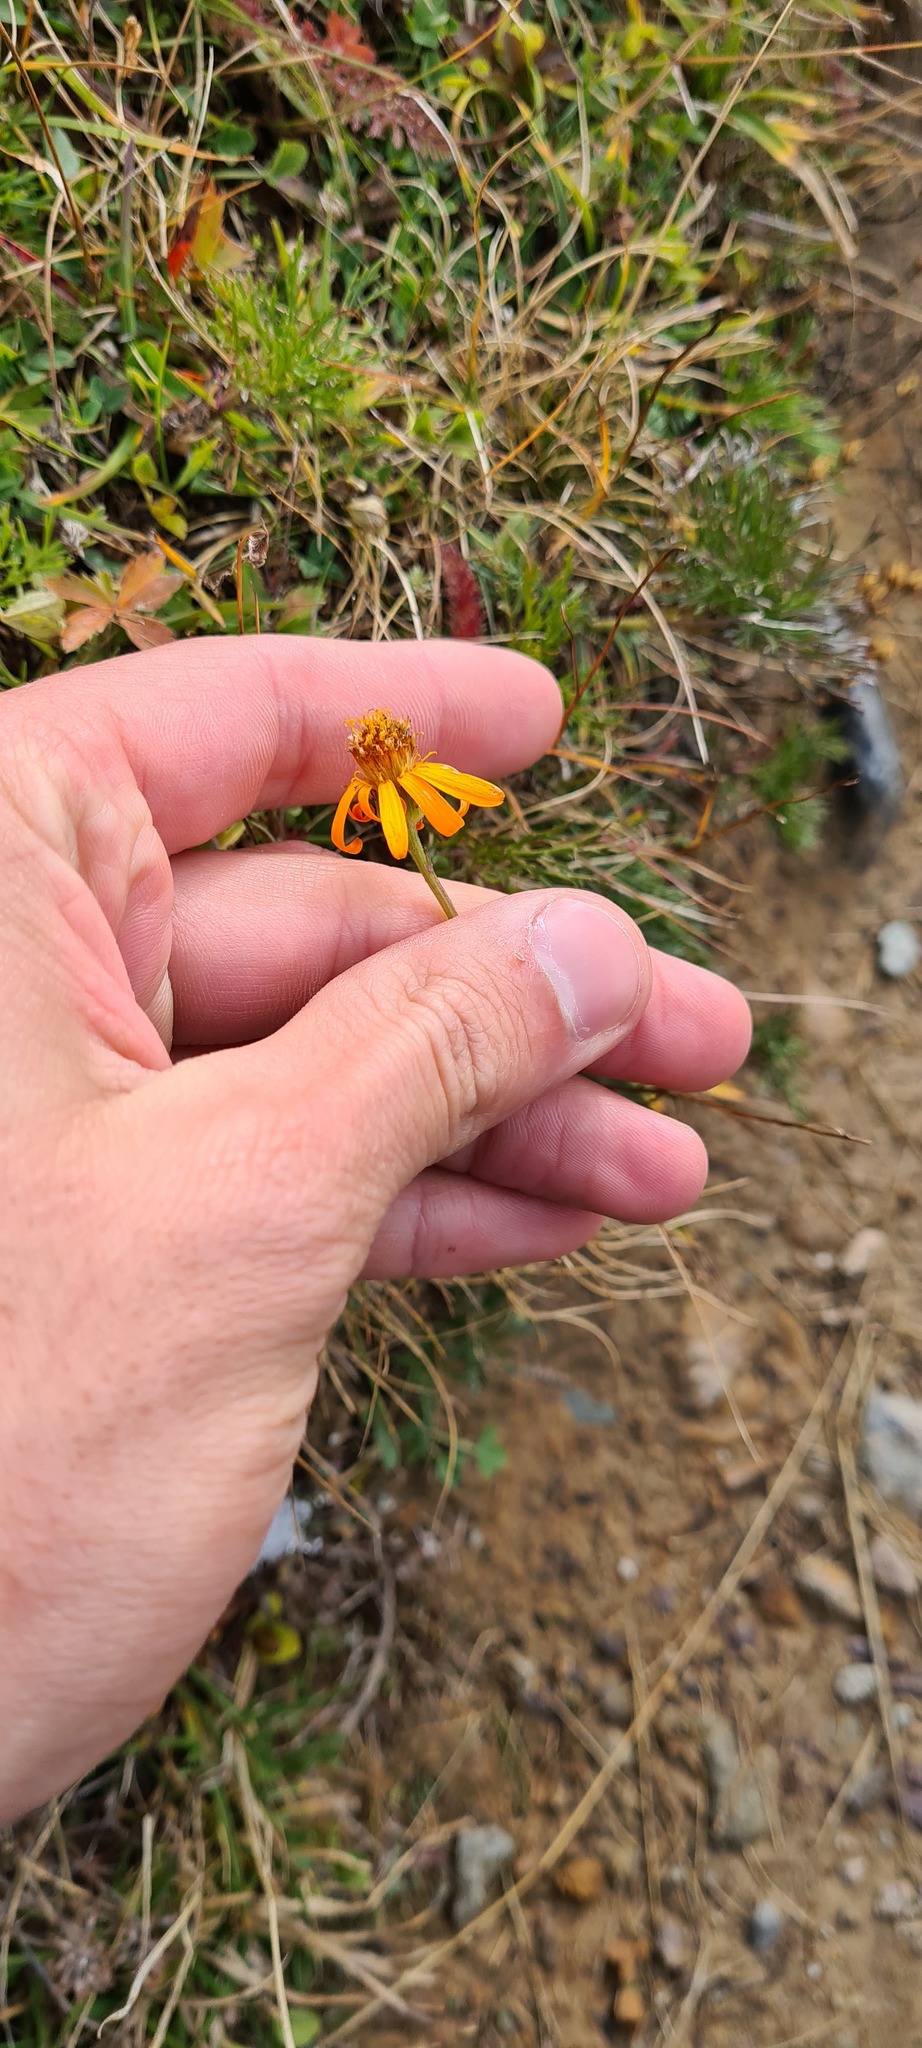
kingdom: Plantae
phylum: Tracheophyta
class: Magnoliopsida
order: Asterales
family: Asteraceae
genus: Jacobaea
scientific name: Jacobaea abrotanifolia
